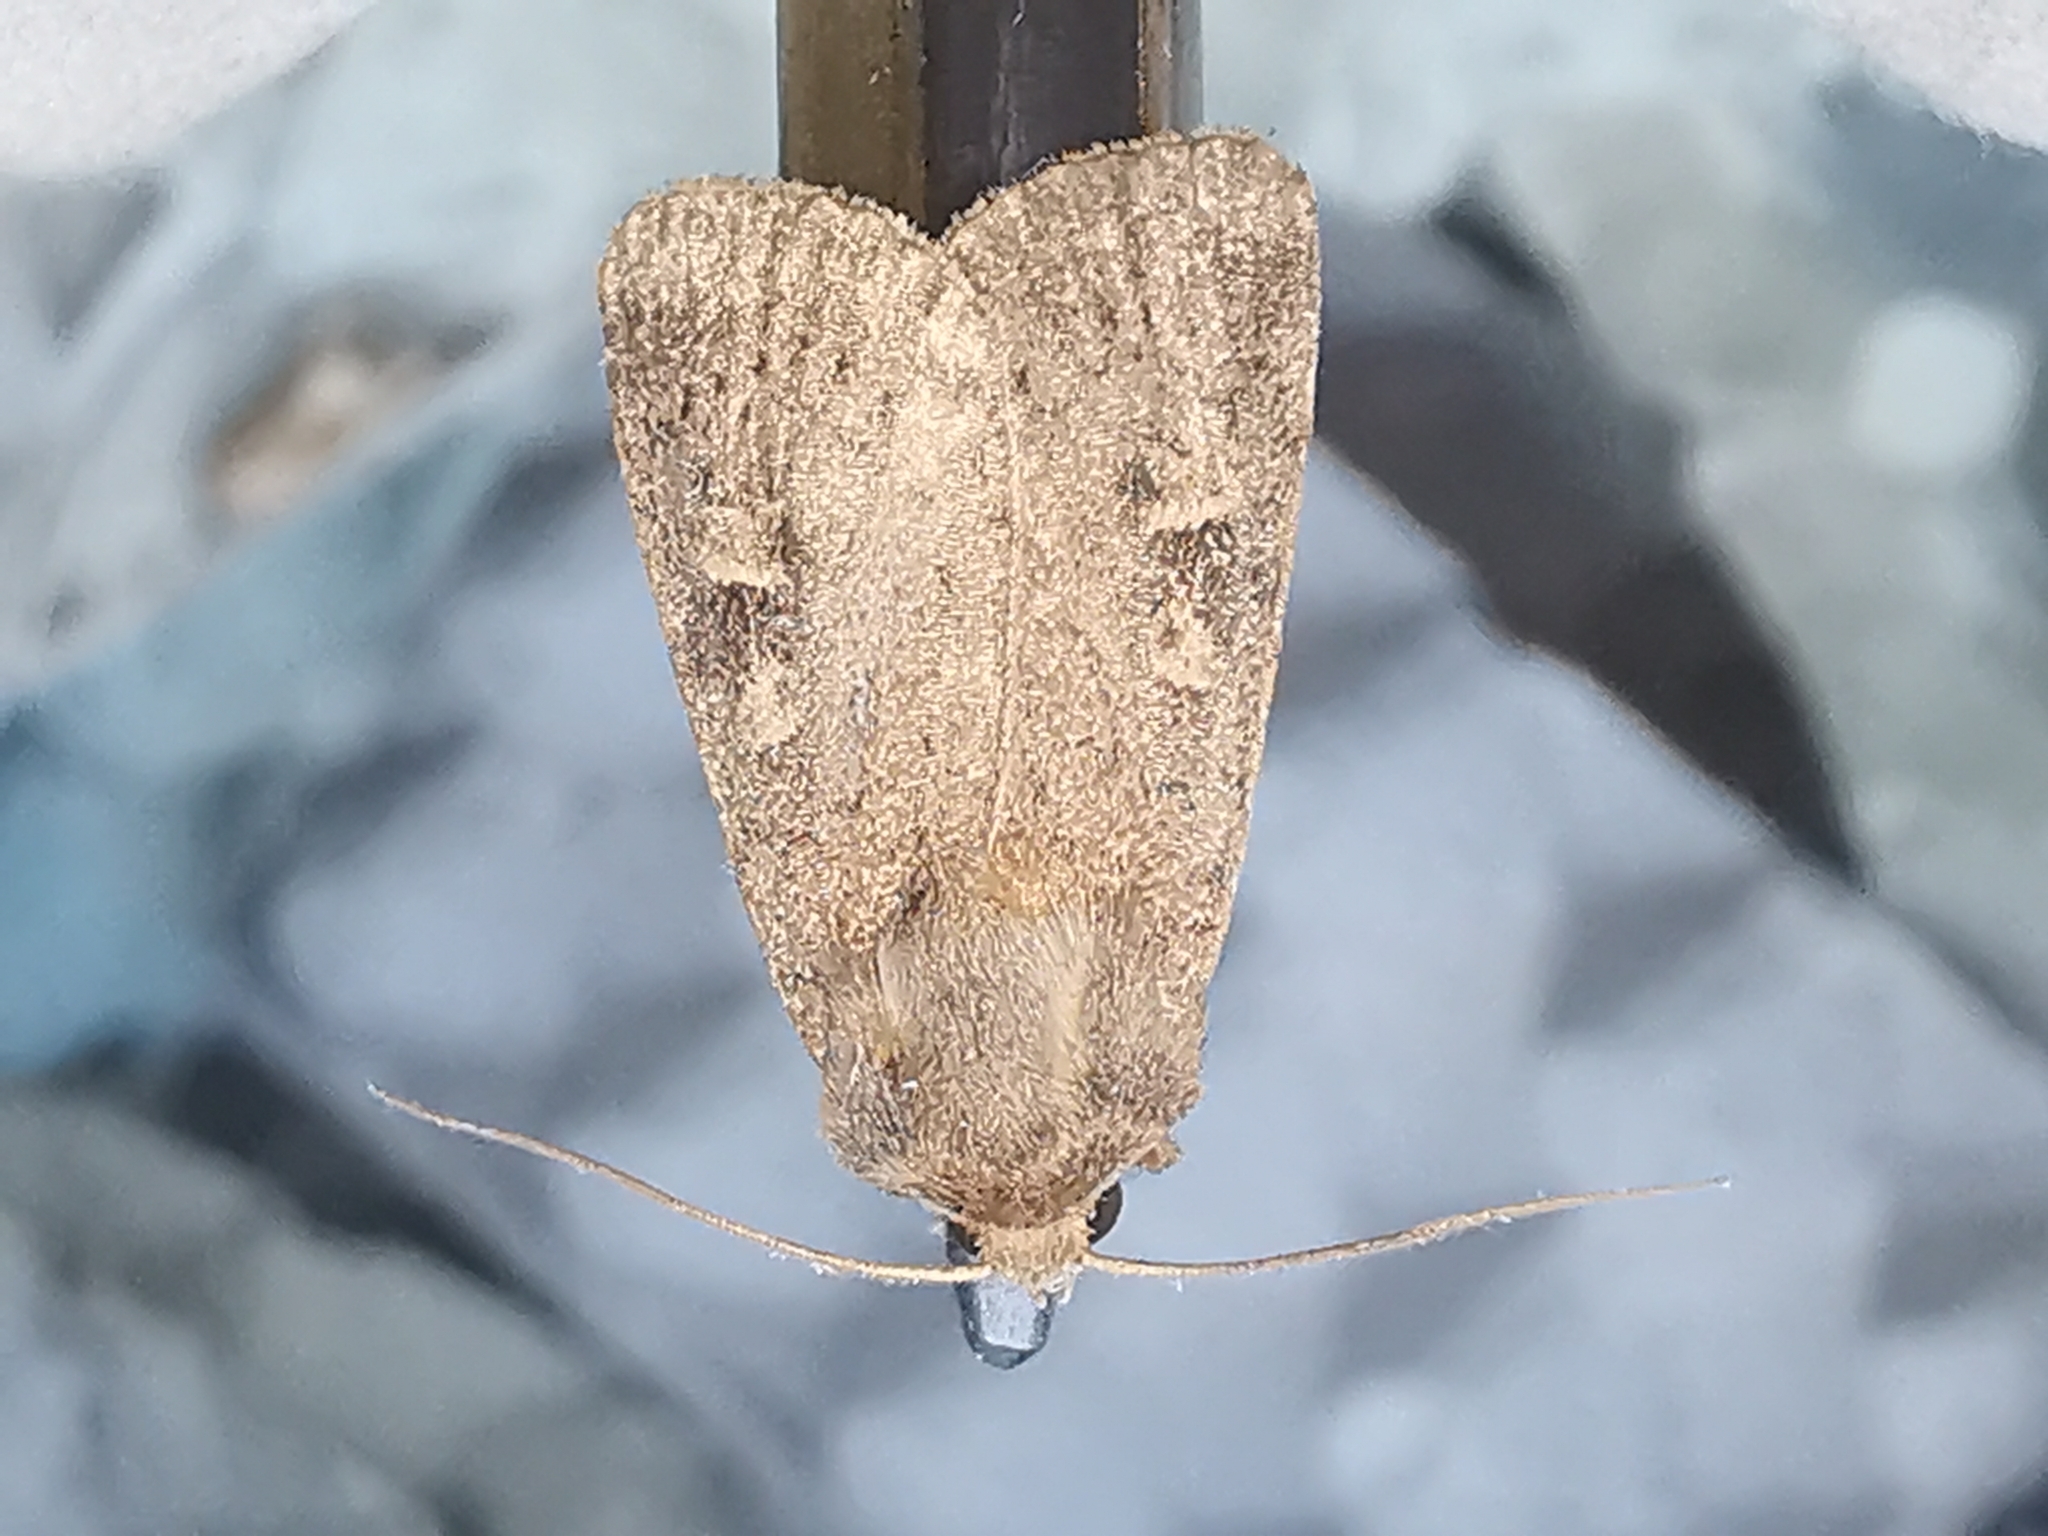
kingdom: Animalia
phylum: Arthropoda
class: Insecta
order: Lepidoptera
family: Noctuidae
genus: Xestia
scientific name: Xestia xanthographa
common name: Square-spot rustic
